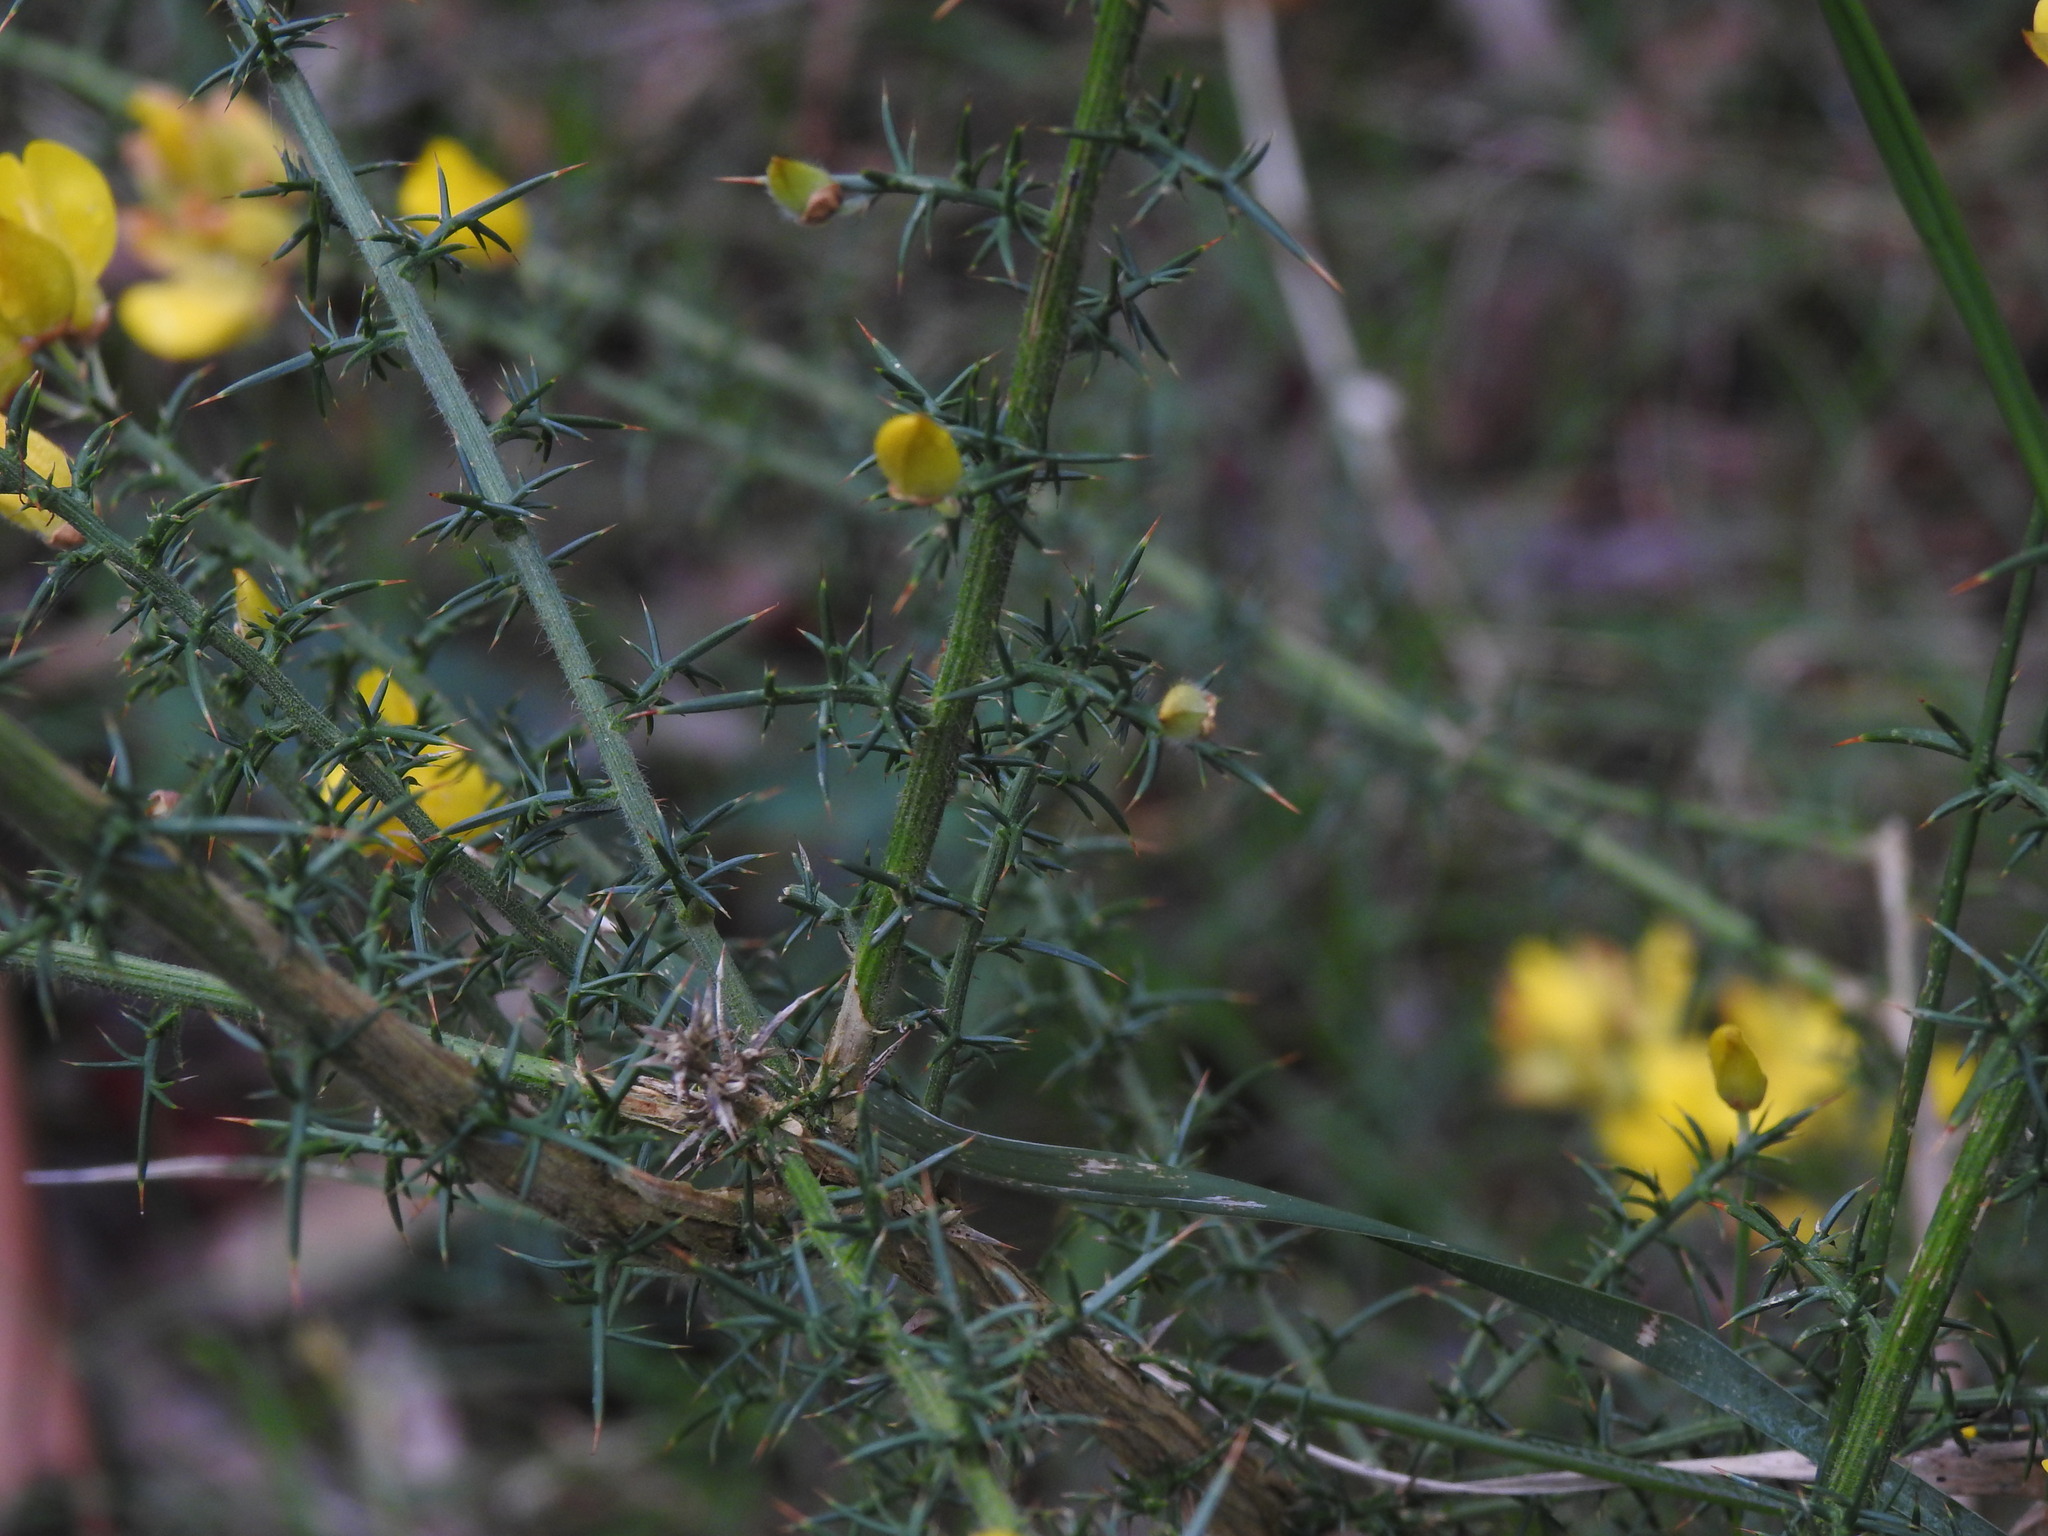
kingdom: Plantae
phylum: Tracheophyta
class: Magnoliopsida
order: Fabales
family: Fabaceae
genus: Ulex
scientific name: Ulex europaeus
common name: Common gorse
